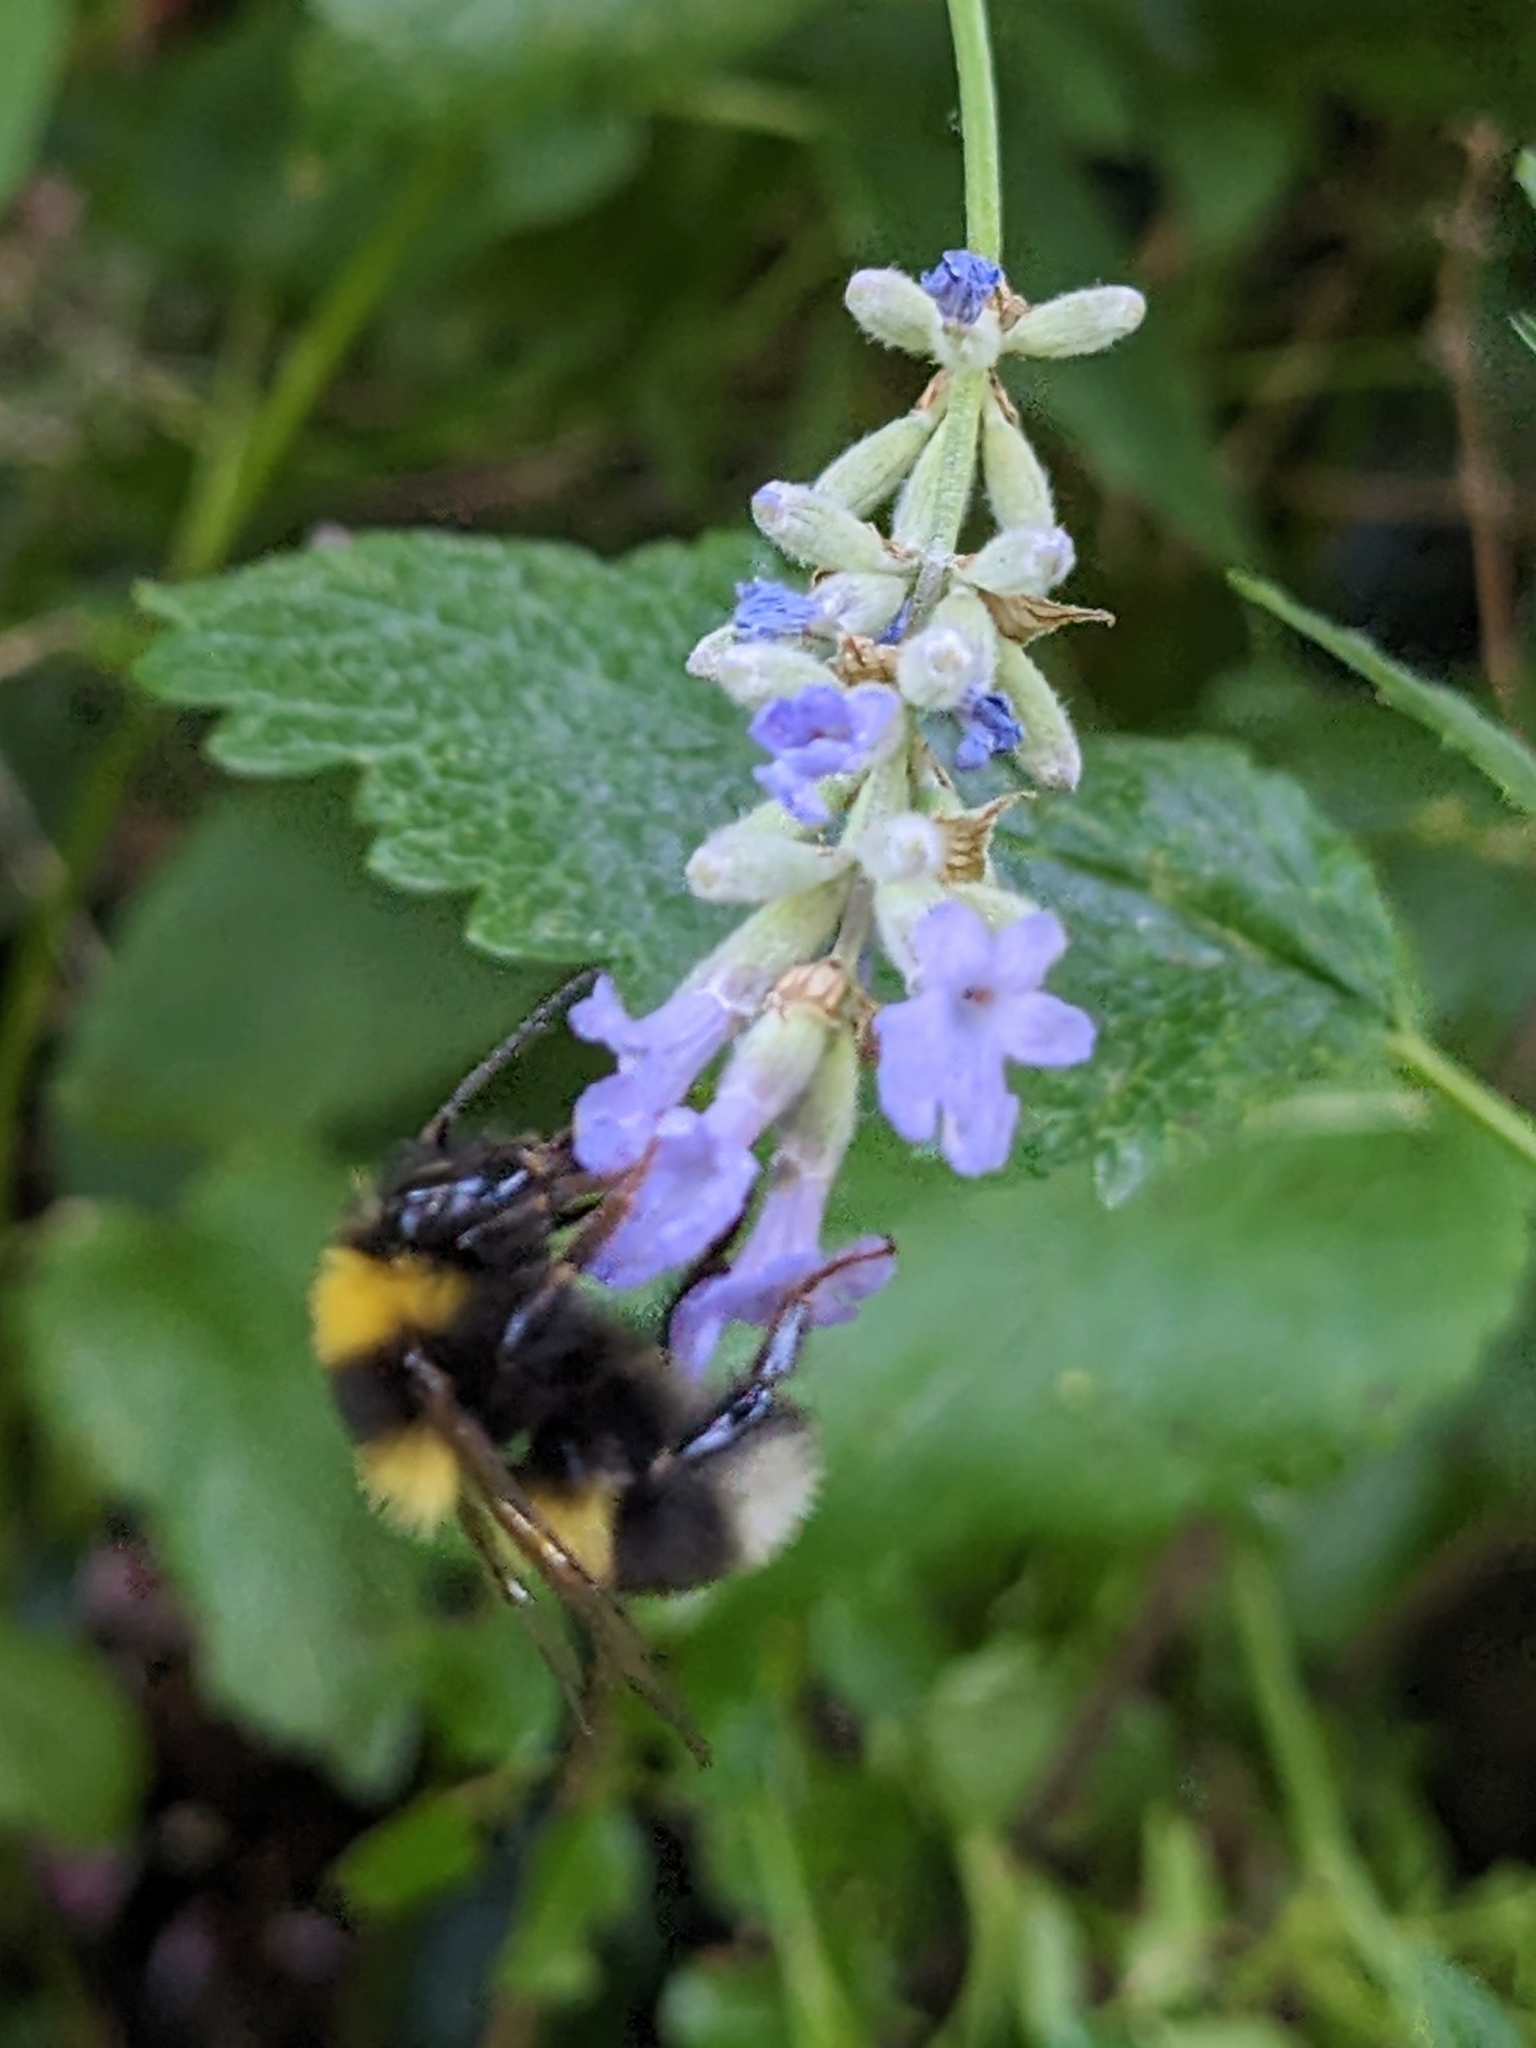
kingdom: Animalia
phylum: Arthropoda
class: Insecta
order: Hymenoptera
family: Apidae
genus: Bombus
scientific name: Bombus hortorum
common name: Garden bumblebee
